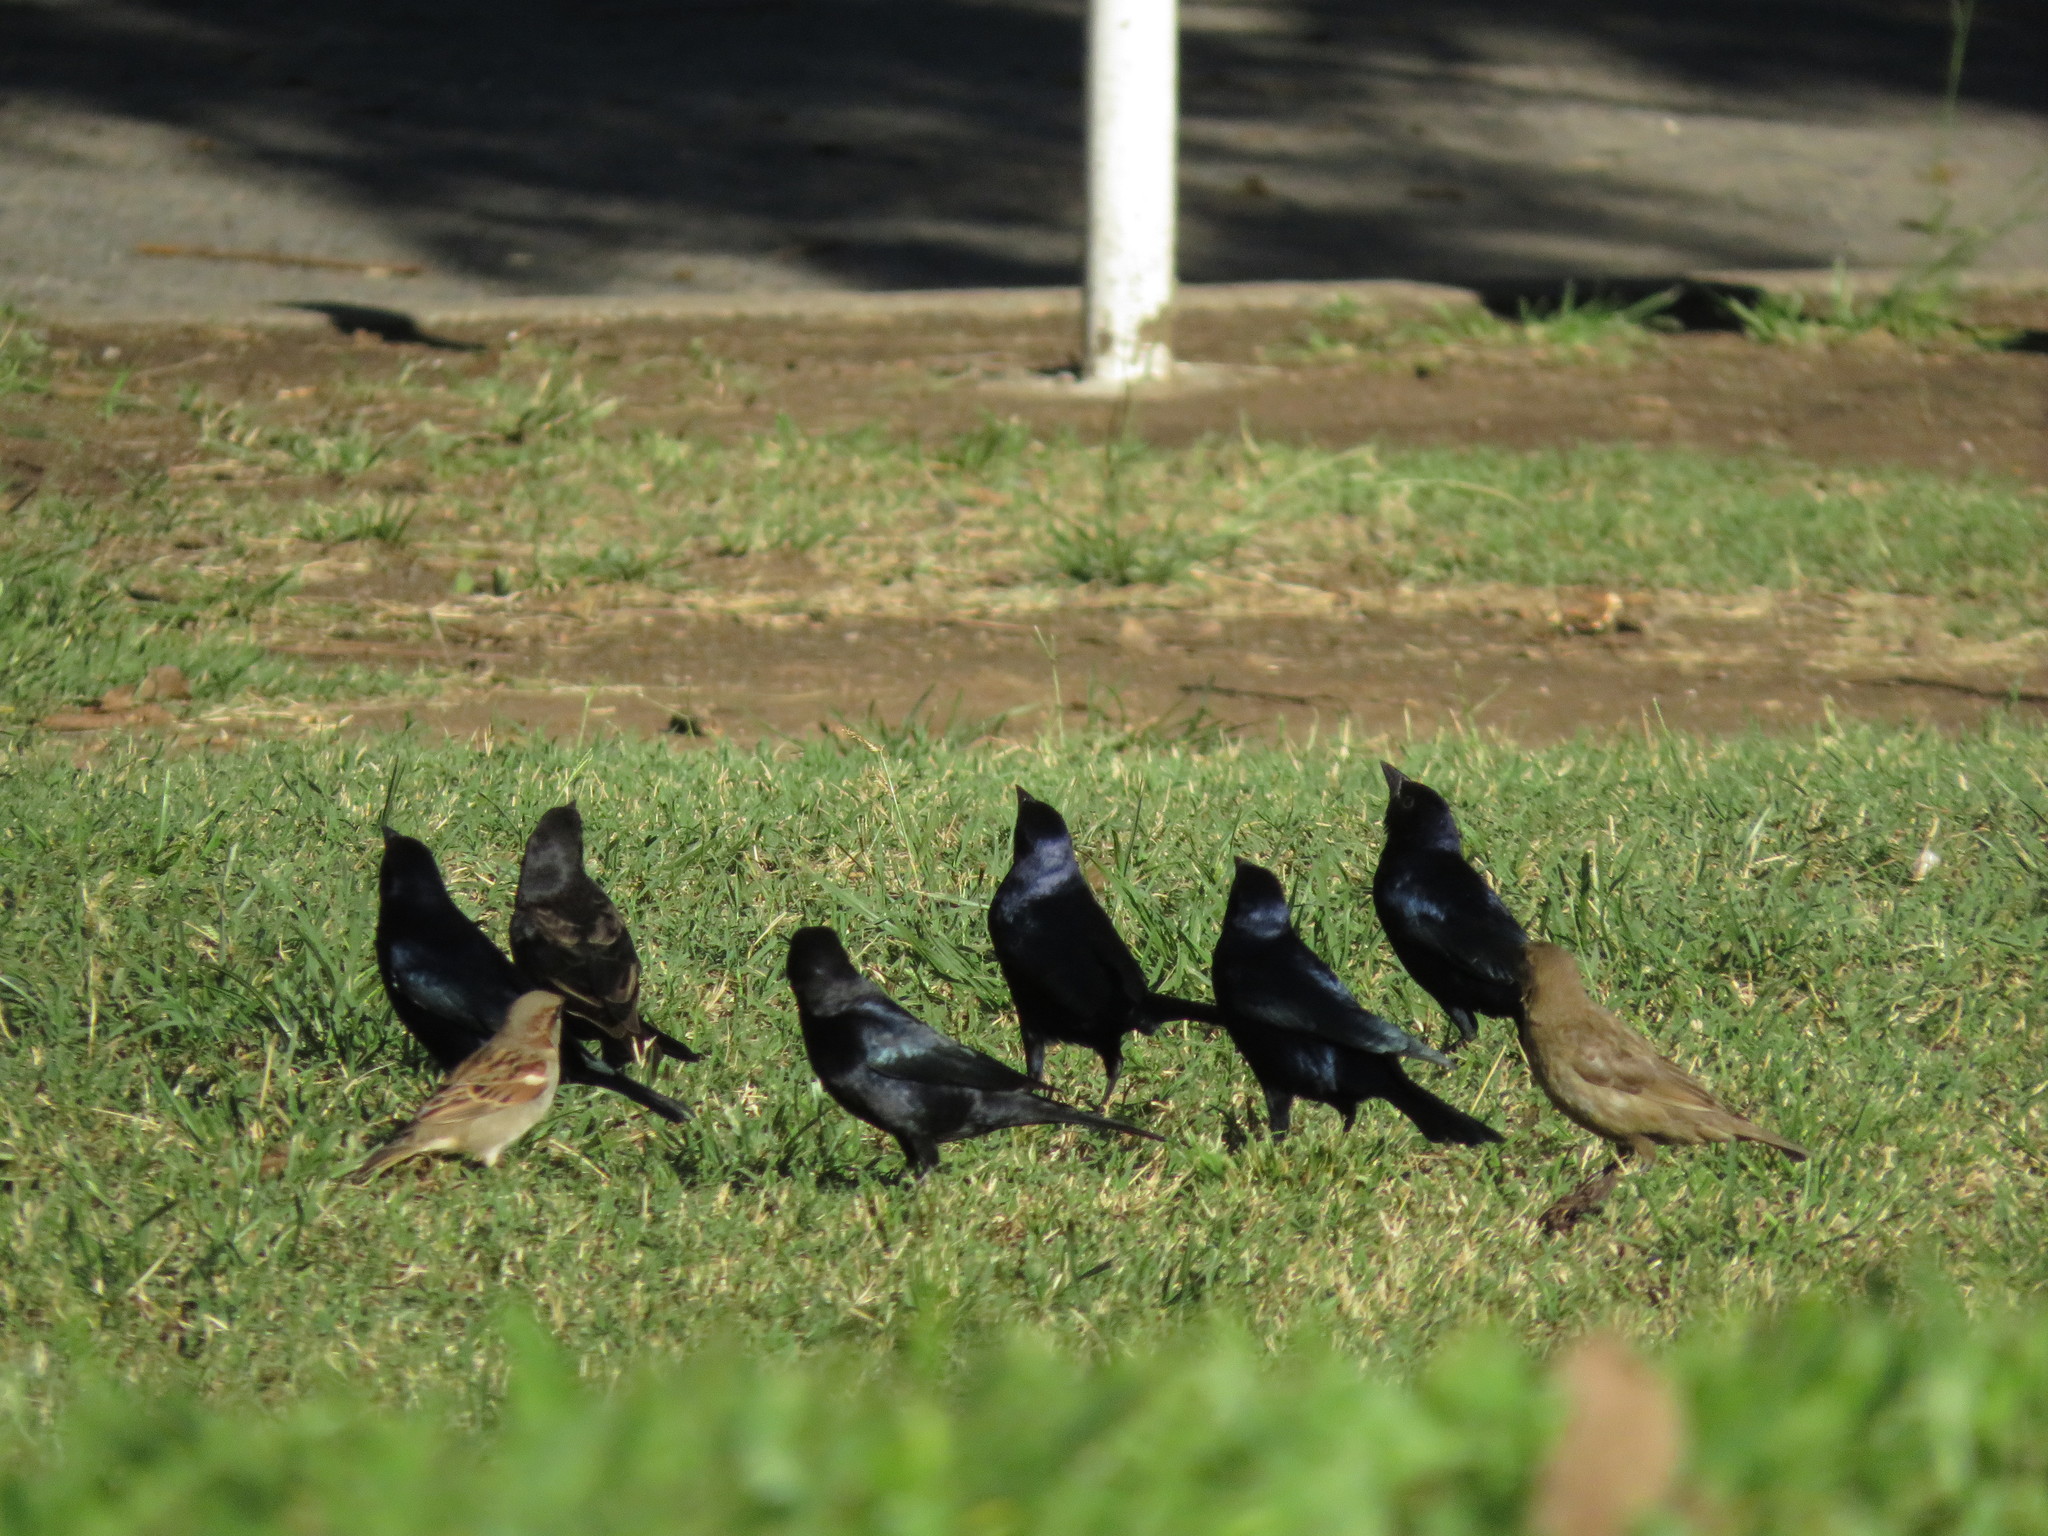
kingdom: Animalia
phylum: Chordata
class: Aves
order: Passeriformes
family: Icteridae
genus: Molothrus
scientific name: Molothrus bonariensis
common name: Shiny cowbird
